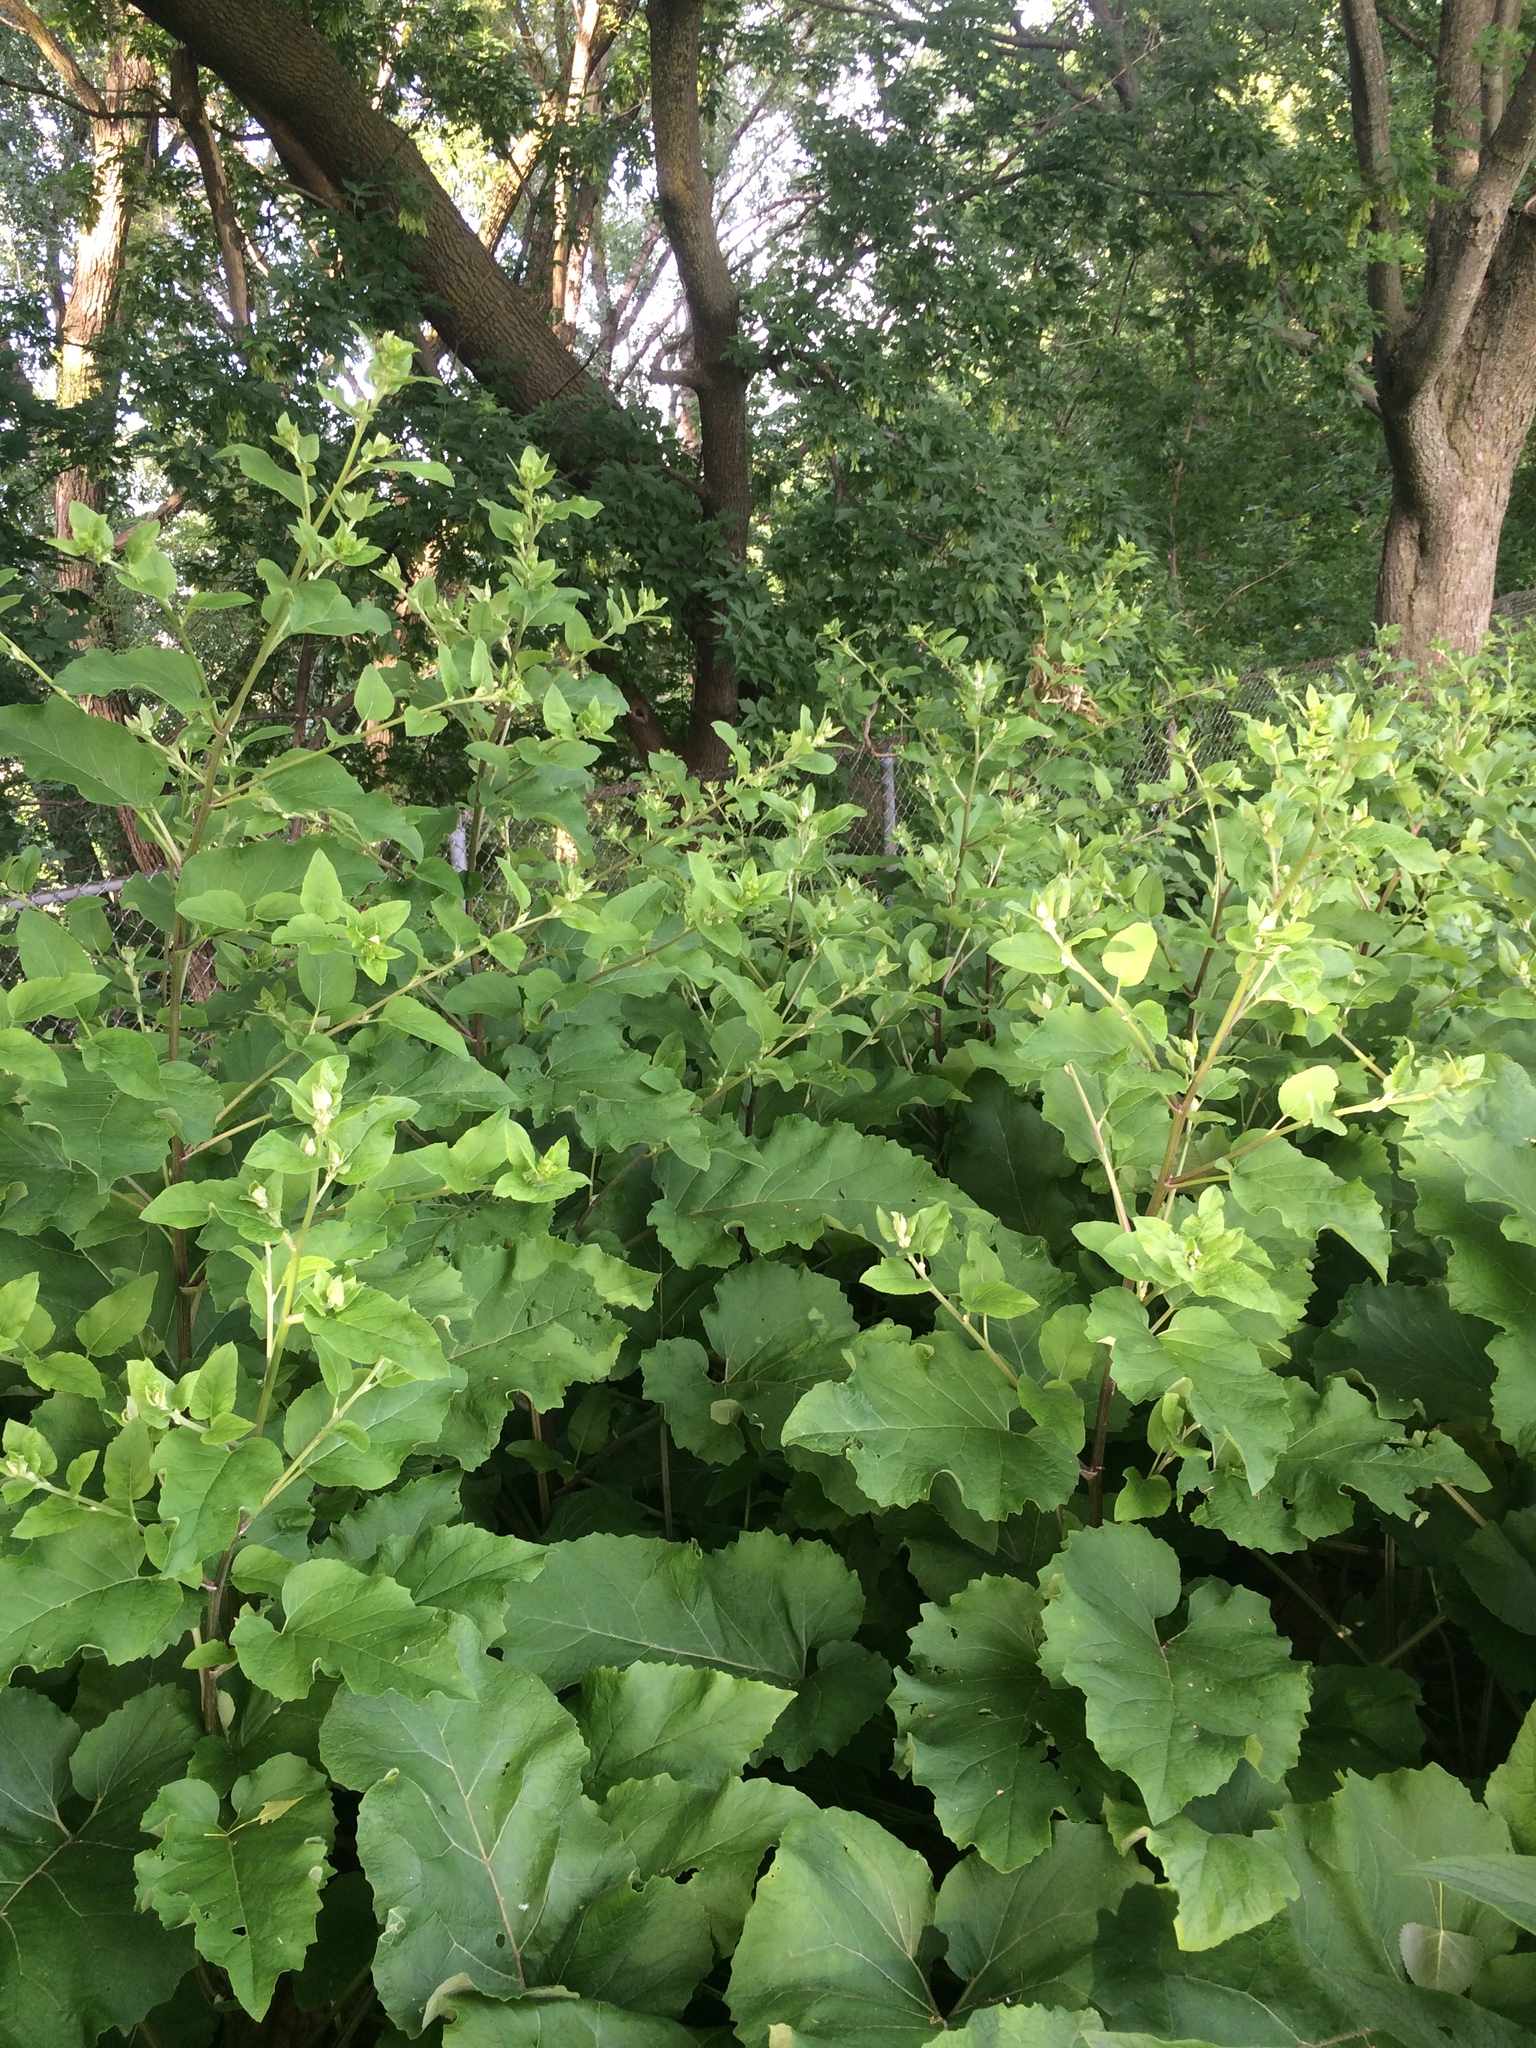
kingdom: Plantae
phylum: Tracheophyta
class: Magnoliopsida
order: Asterales
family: Asteraceae
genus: Arctium
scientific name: Arctium minus
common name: Lesser burdock
